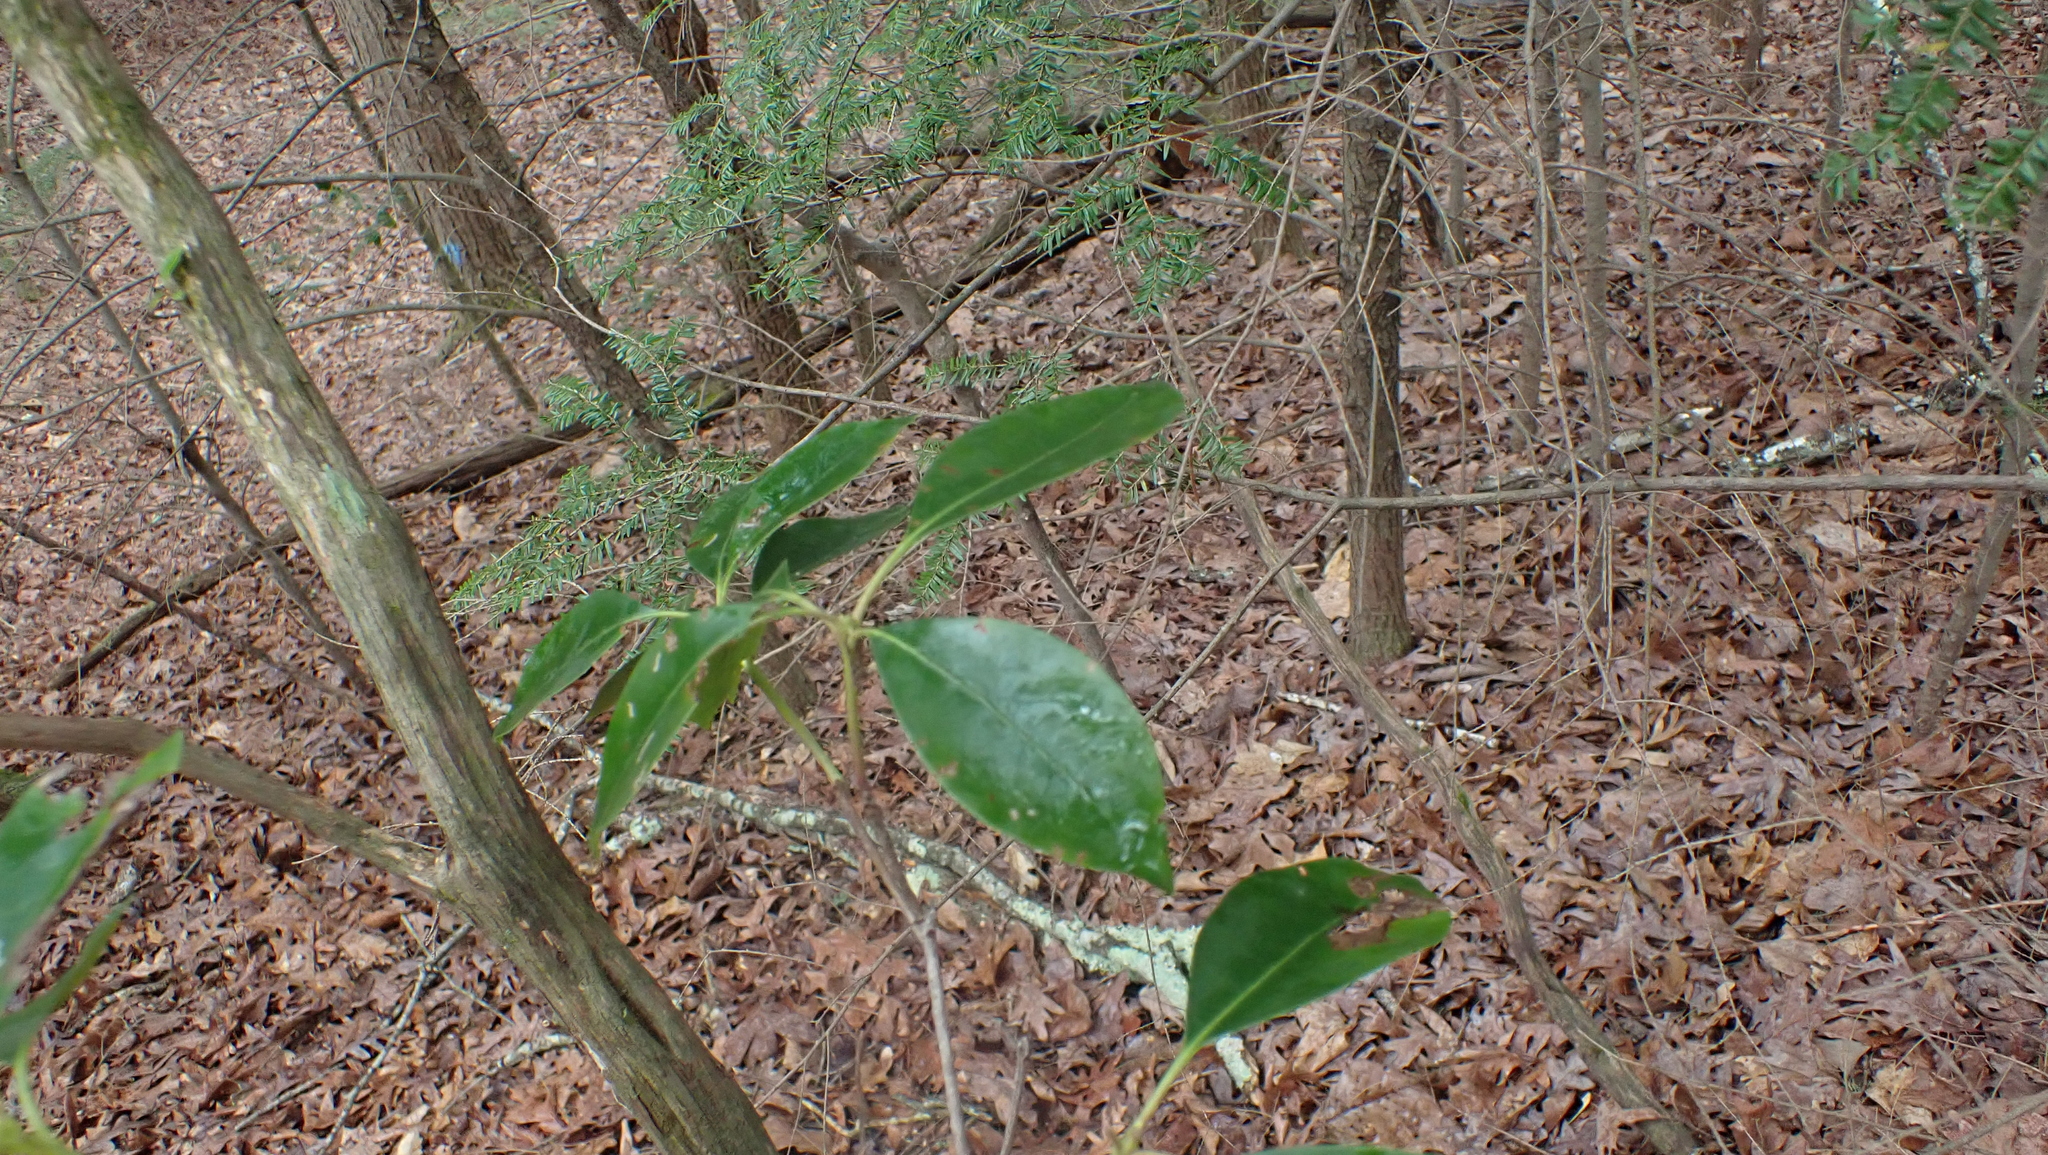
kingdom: Plantae
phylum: Tracheophyta
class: Magnoliopsida
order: Ericales
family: Ericaceae
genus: Kalmia
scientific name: Kalmia latifolia
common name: Mountain-laurel
